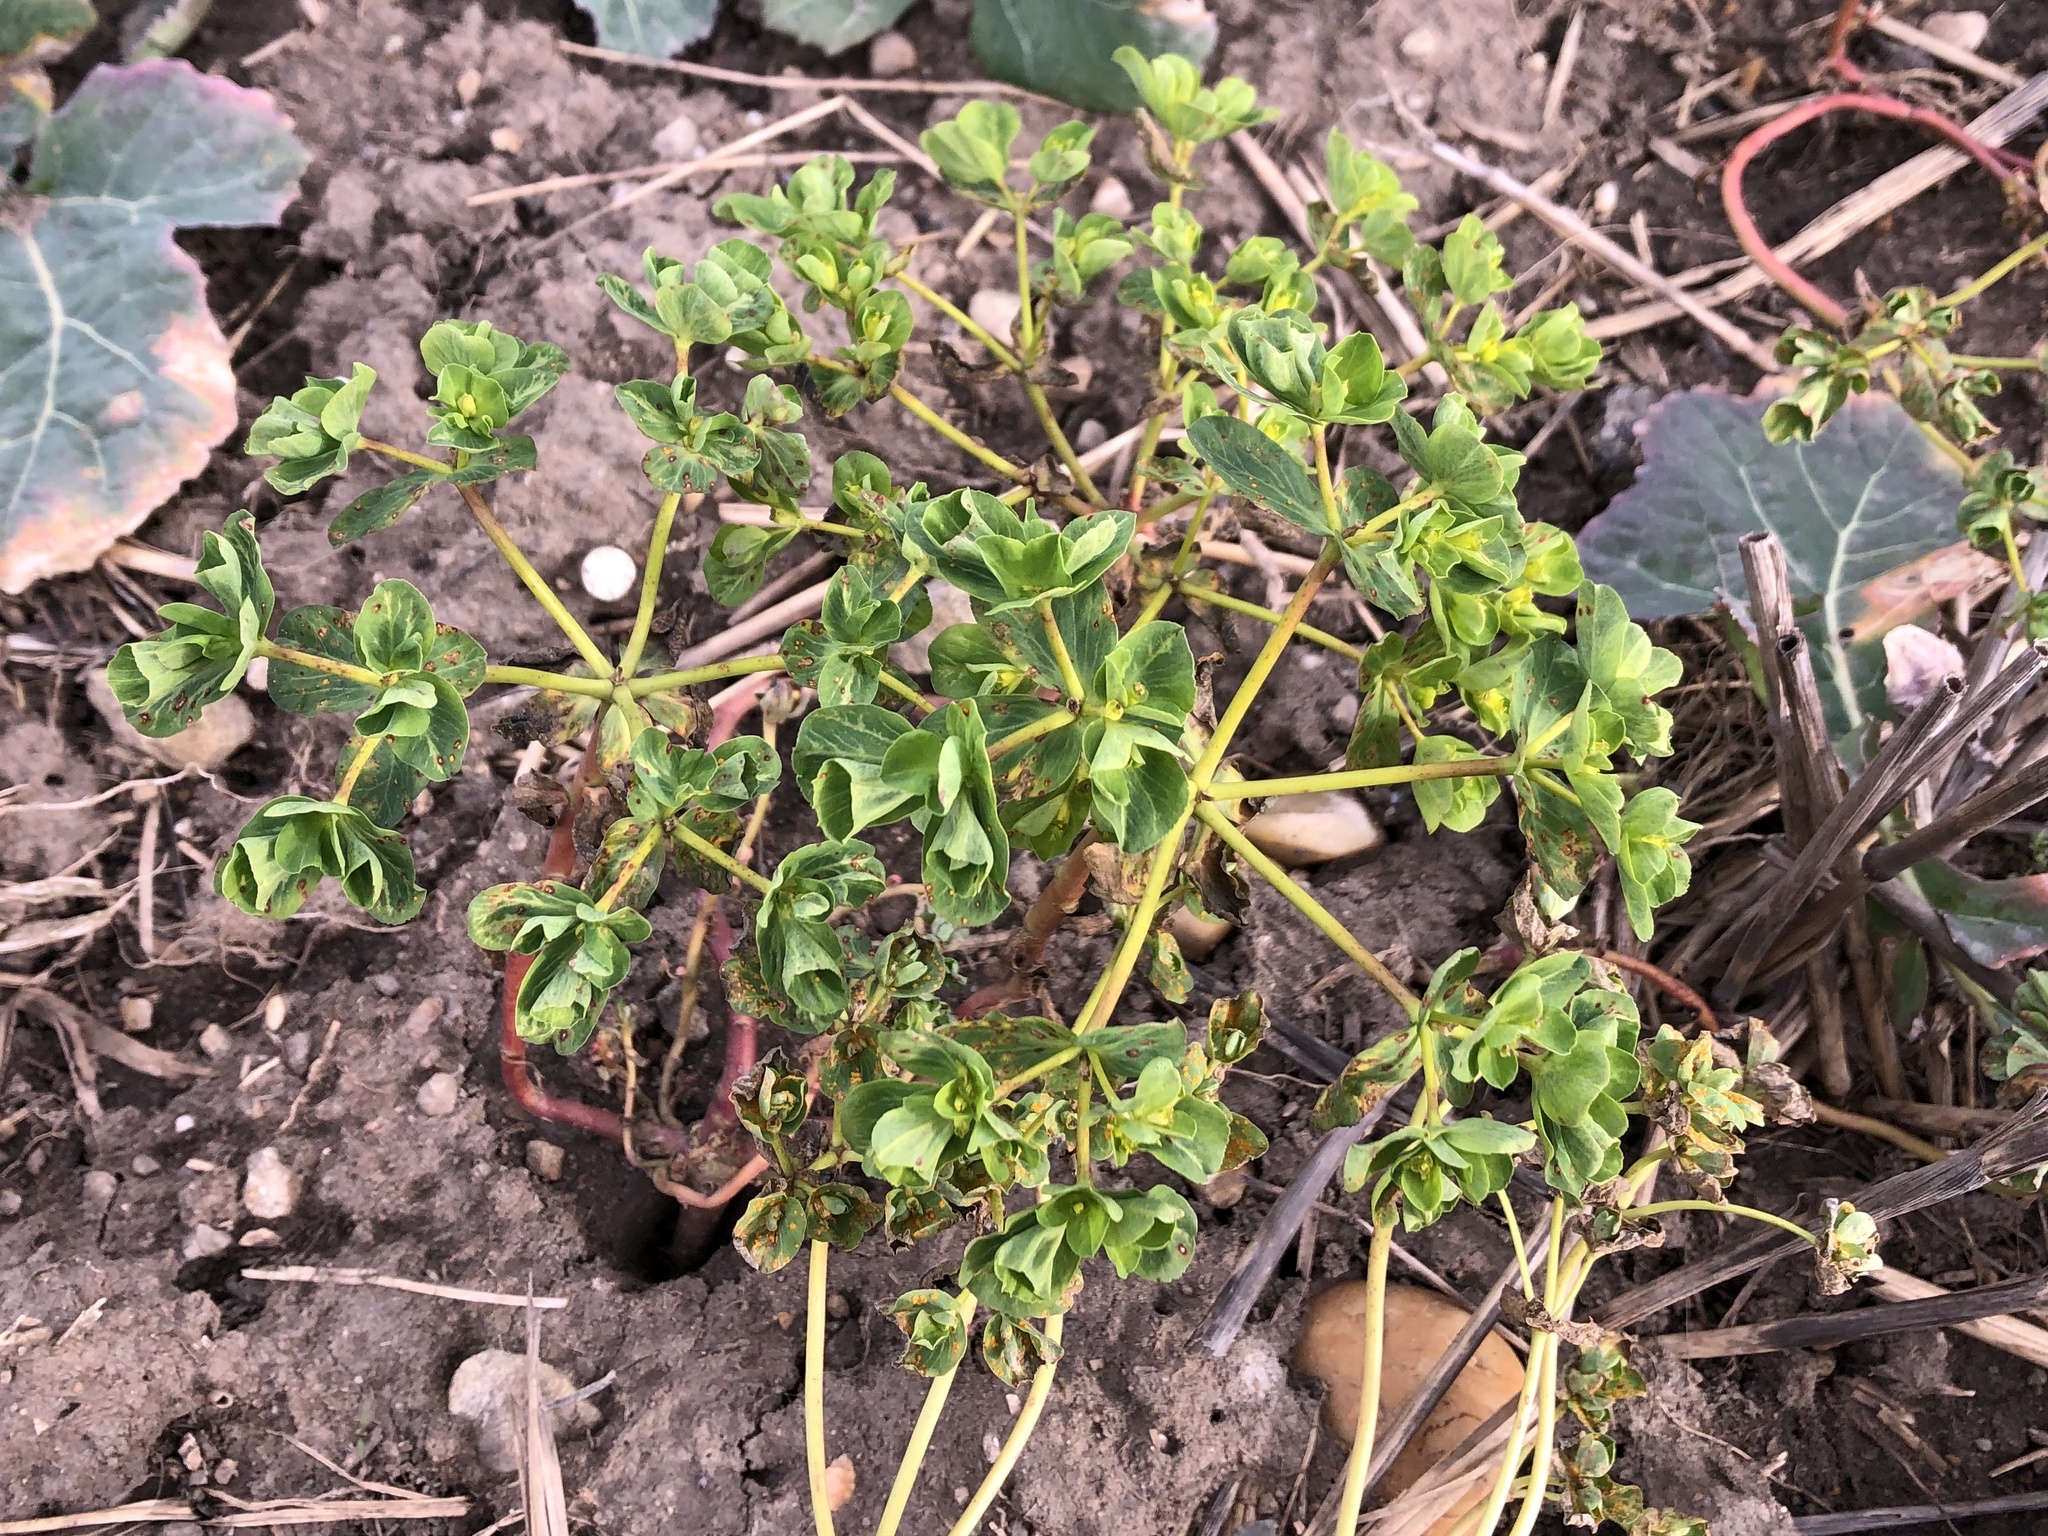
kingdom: Plantae
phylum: Tracheophyta
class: Magnoliopsida
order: Malpighiales
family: Euphorbiaceae
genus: Euphorbia
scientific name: Euphorbia helioscopia
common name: Sun spurge
